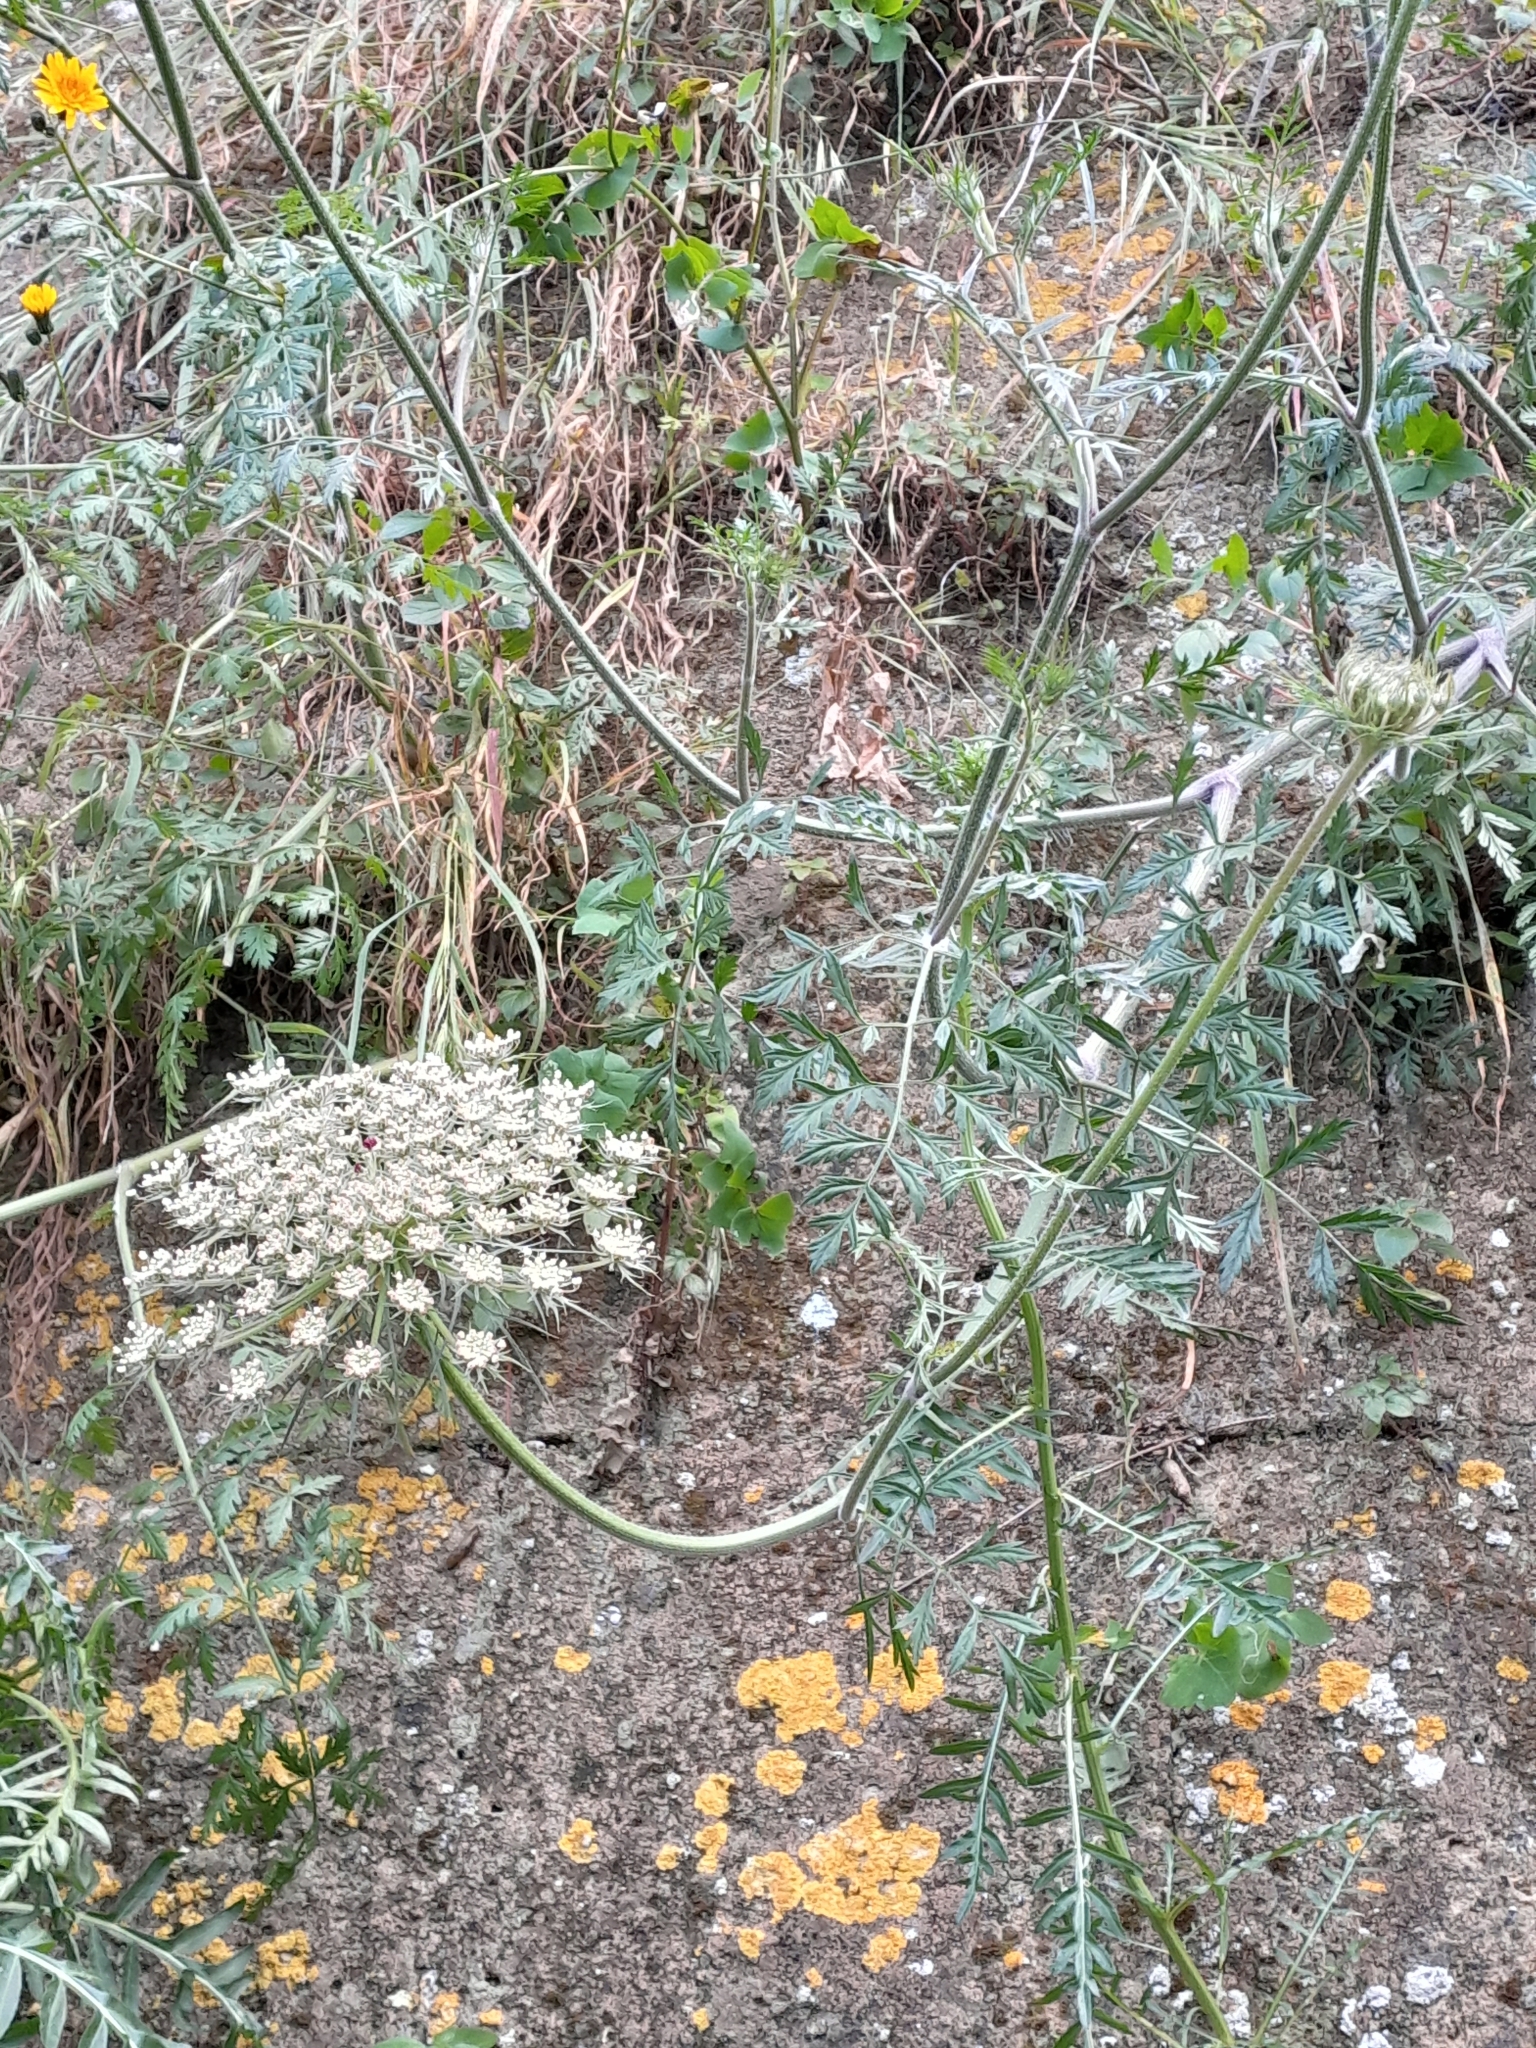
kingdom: Plantae
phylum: Tracheophyta
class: Magnoliopsida
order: Apiales
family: Apiaceae
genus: Daucus
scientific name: Daucus carota
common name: Wild carrot
